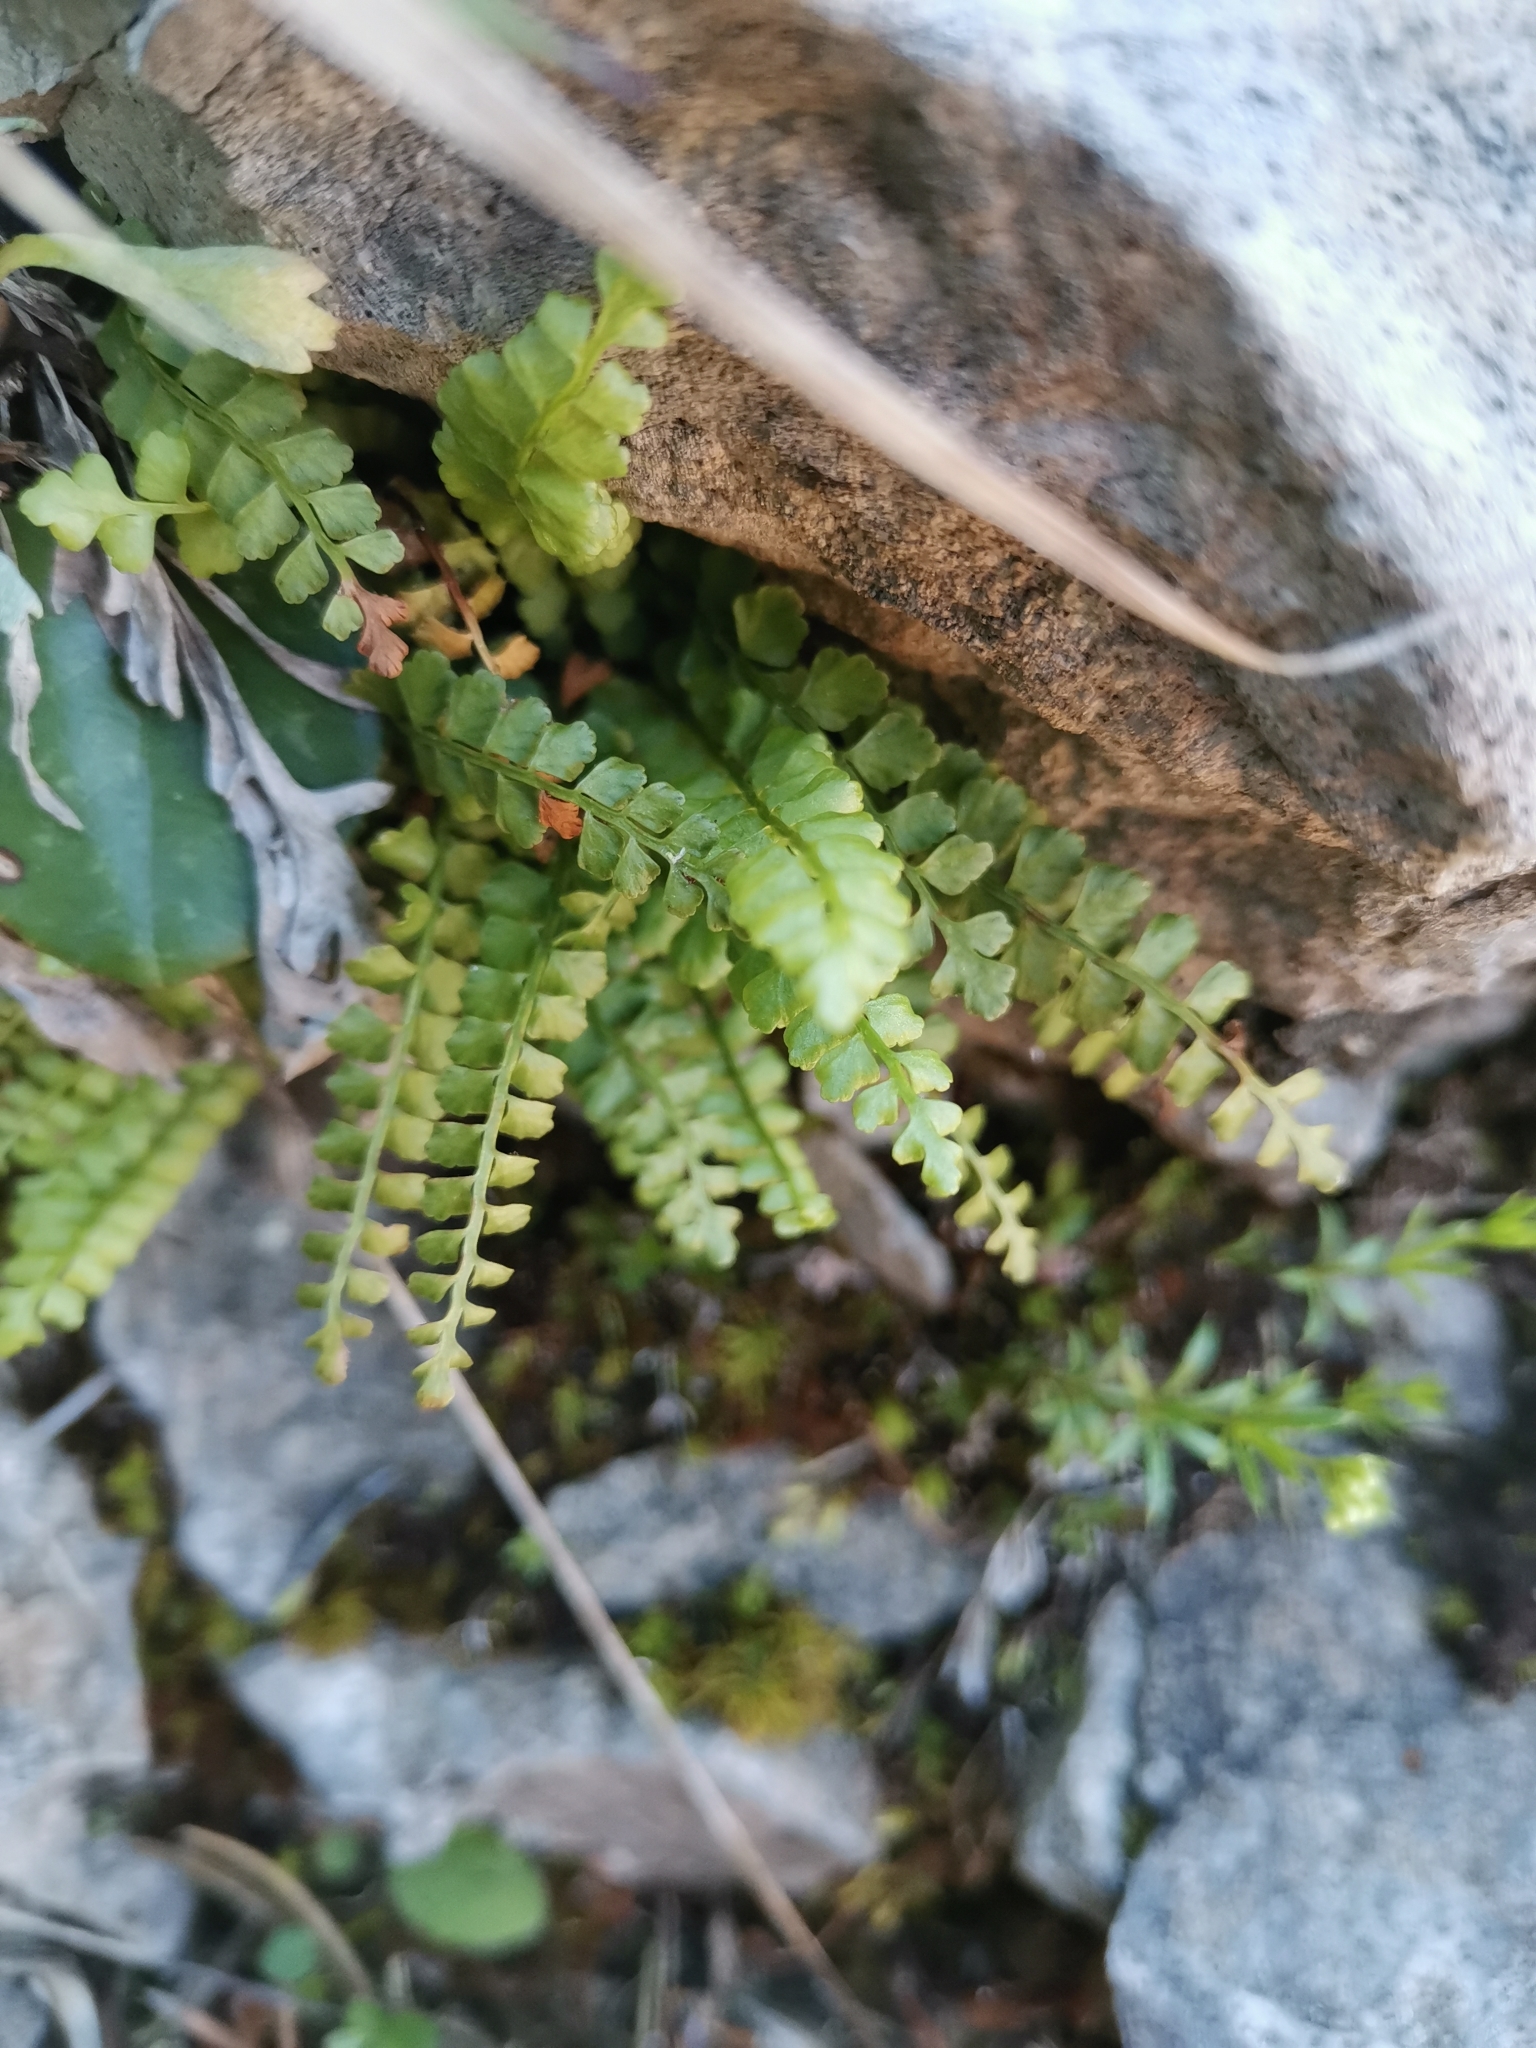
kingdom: Plantae
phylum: Tracheophyta
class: Polypodiopsida
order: Polypodiales
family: Aspleniaceae
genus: Asplenium
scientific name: Asplenium viride
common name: Green spleenwort
